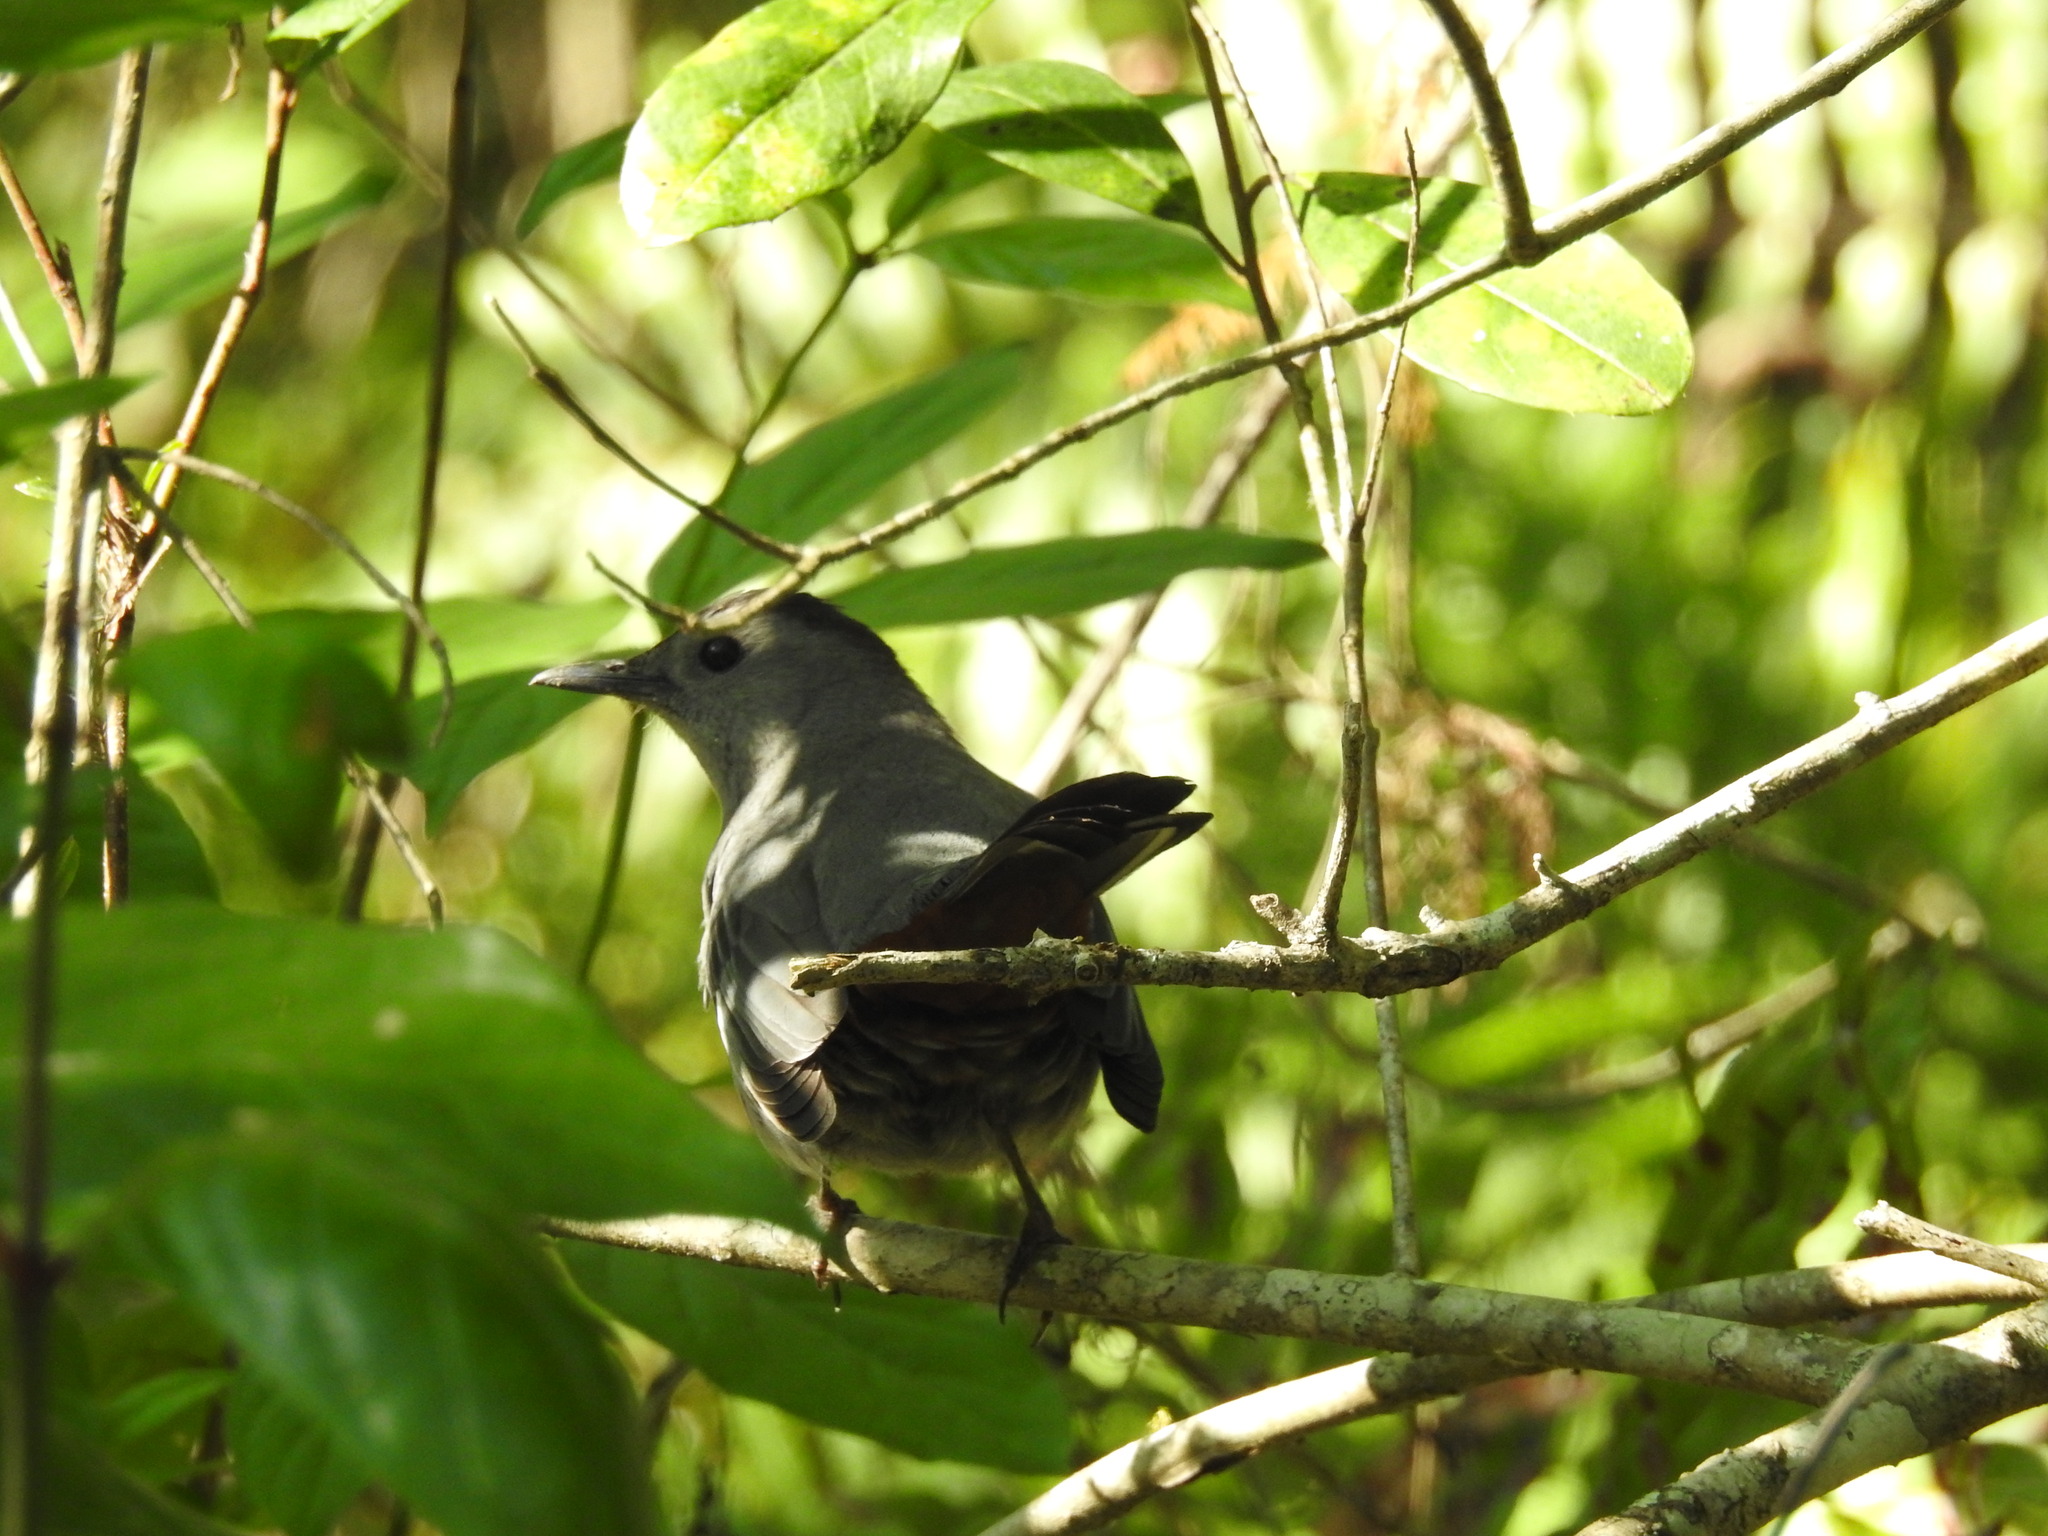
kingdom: Animalia
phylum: Chordata
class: Aves
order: Passeriformes
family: Mimidae
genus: Dumetella
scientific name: Dumetella carolinensis
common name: Gray catbird
